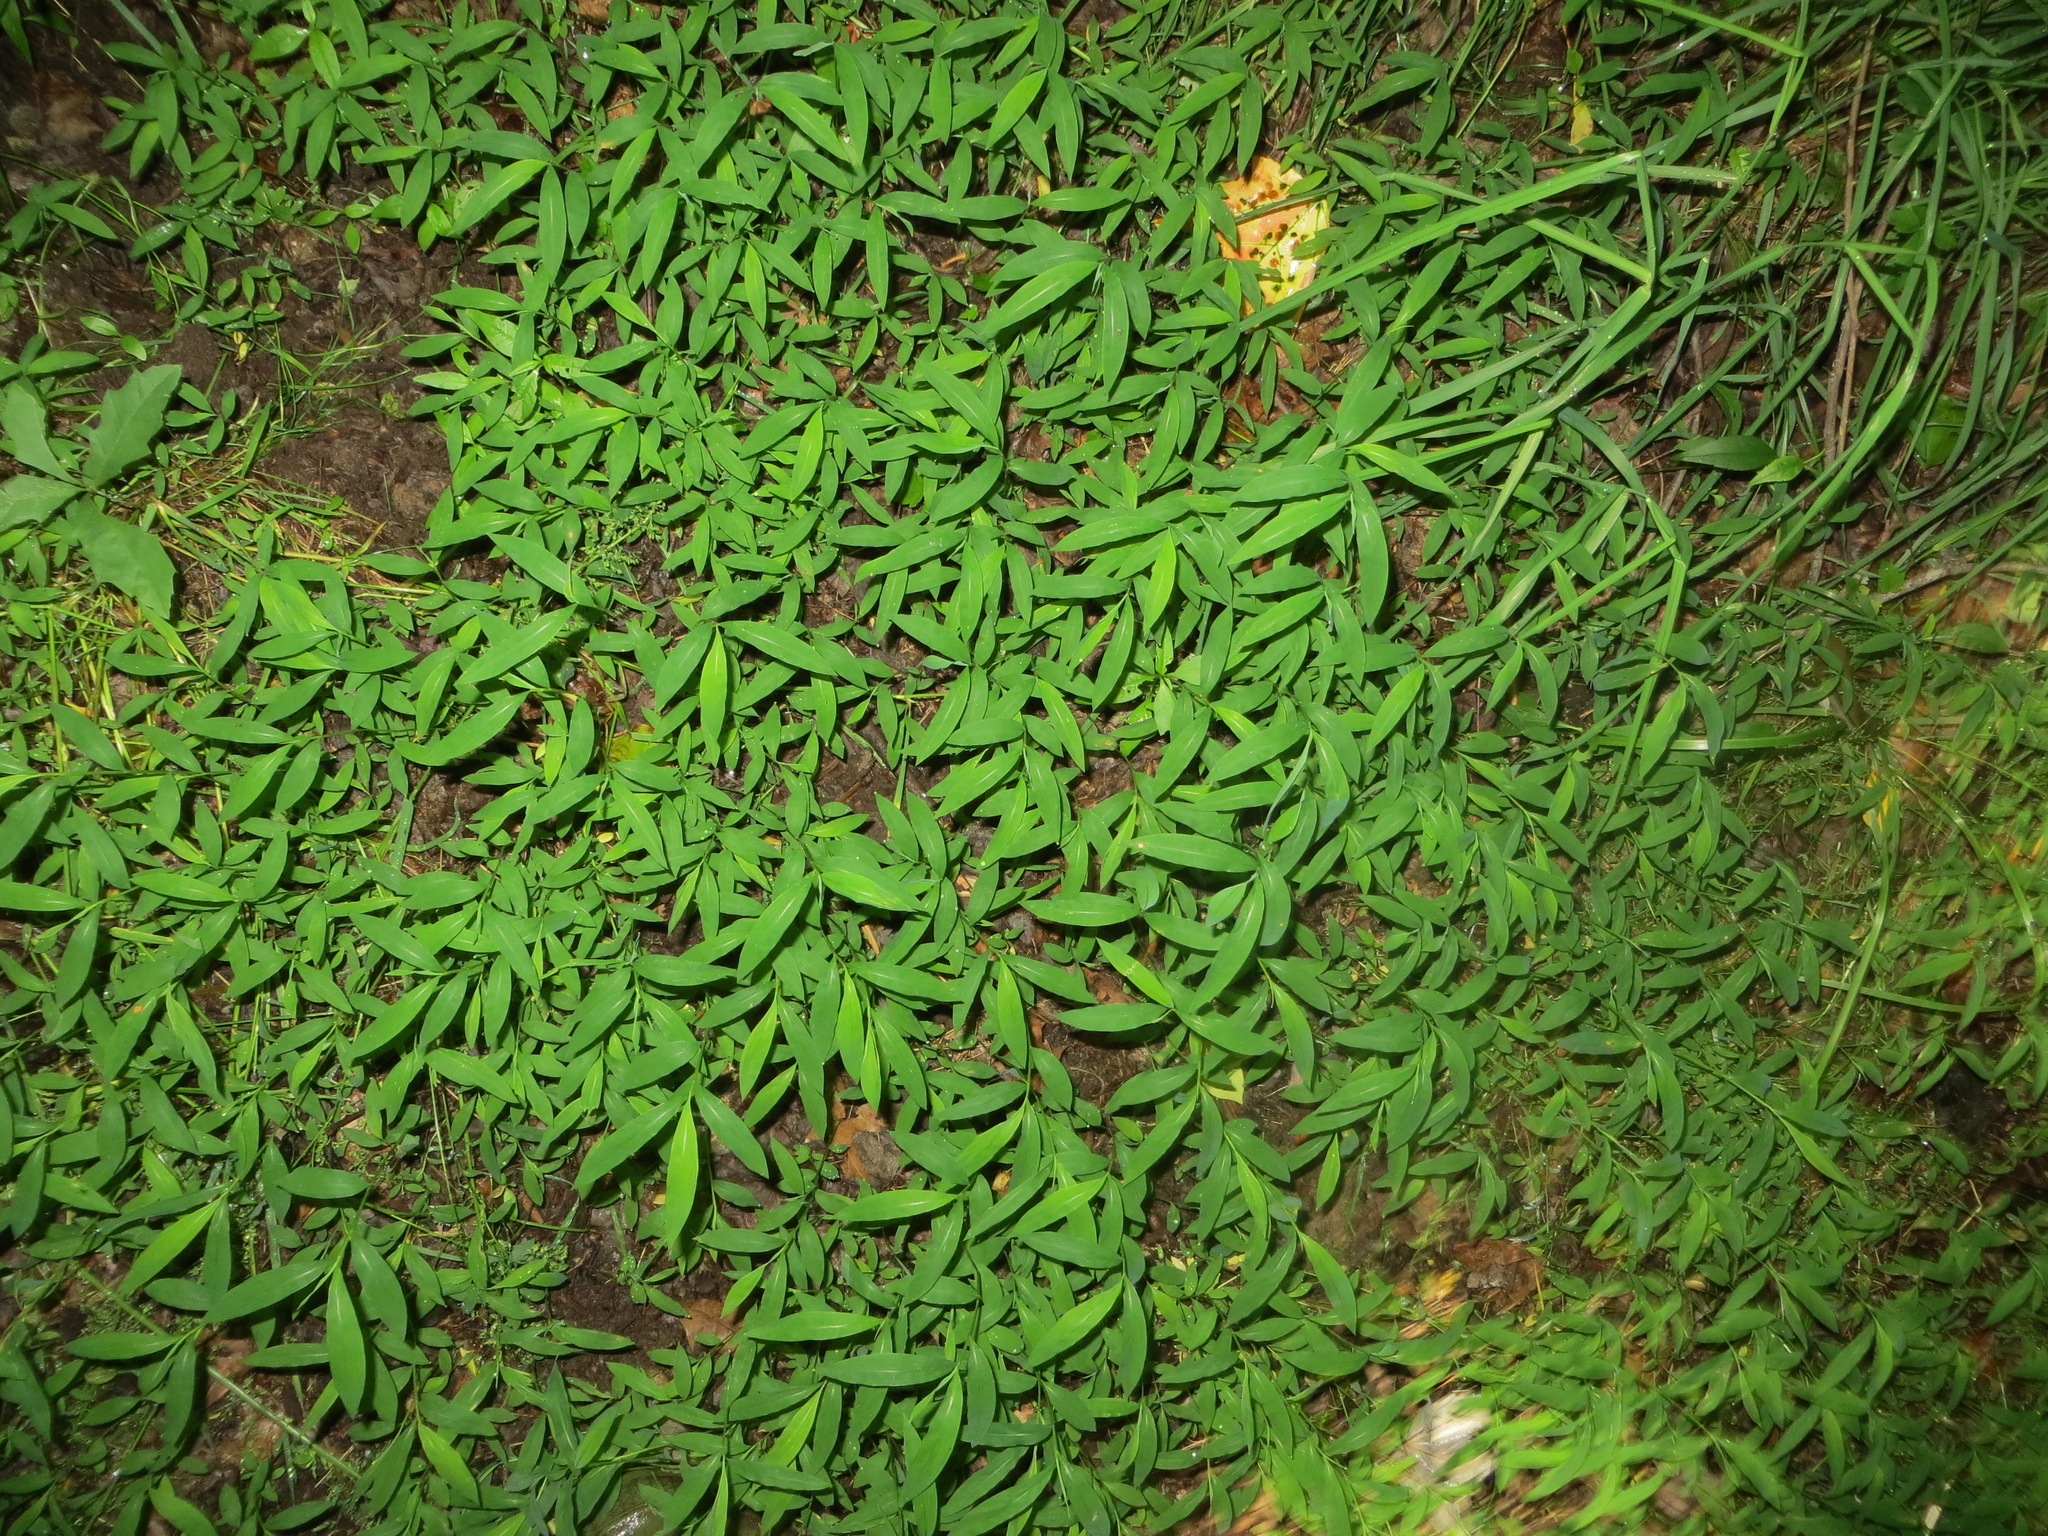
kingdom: Plantae
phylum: Tracheophyta
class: Liliopsida
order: Poales
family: Poaceae
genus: Microstegium
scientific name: Microstegium vimineum
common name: Japanese stiltgrass
